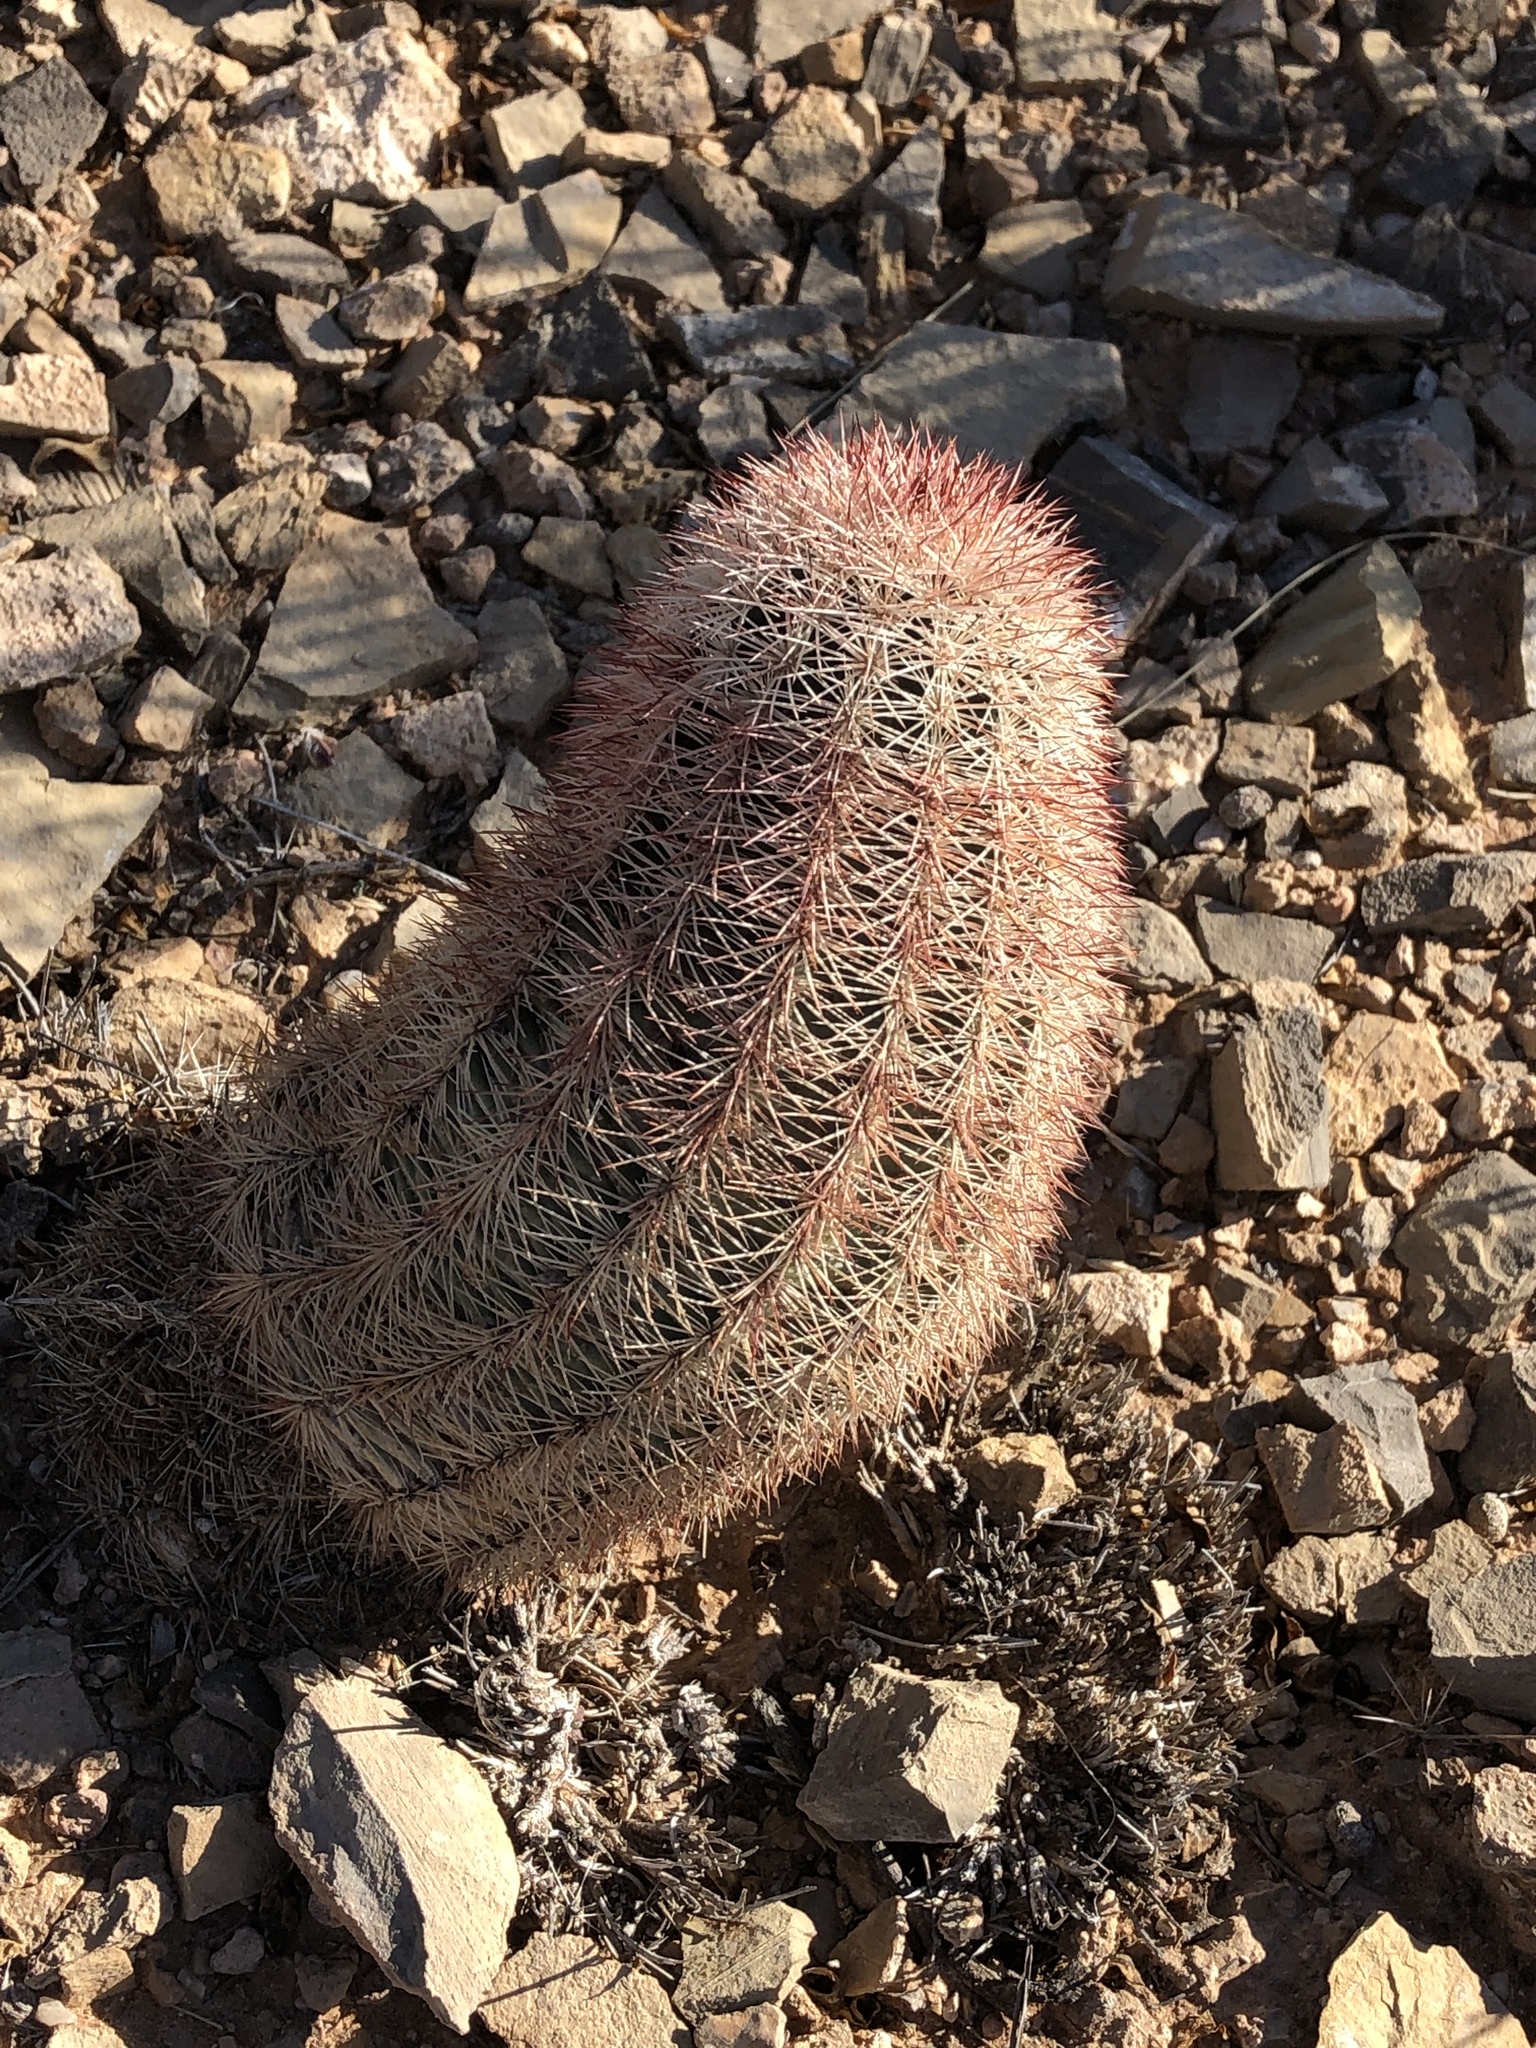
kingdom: Plantae
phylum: Tracheophyta
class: Magnoliopsida
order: Caryophyllales
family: Cactaceae
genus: Echinocereus
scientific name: Echinocereus dasyacanthus
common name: Spiny hedgehog cactus
